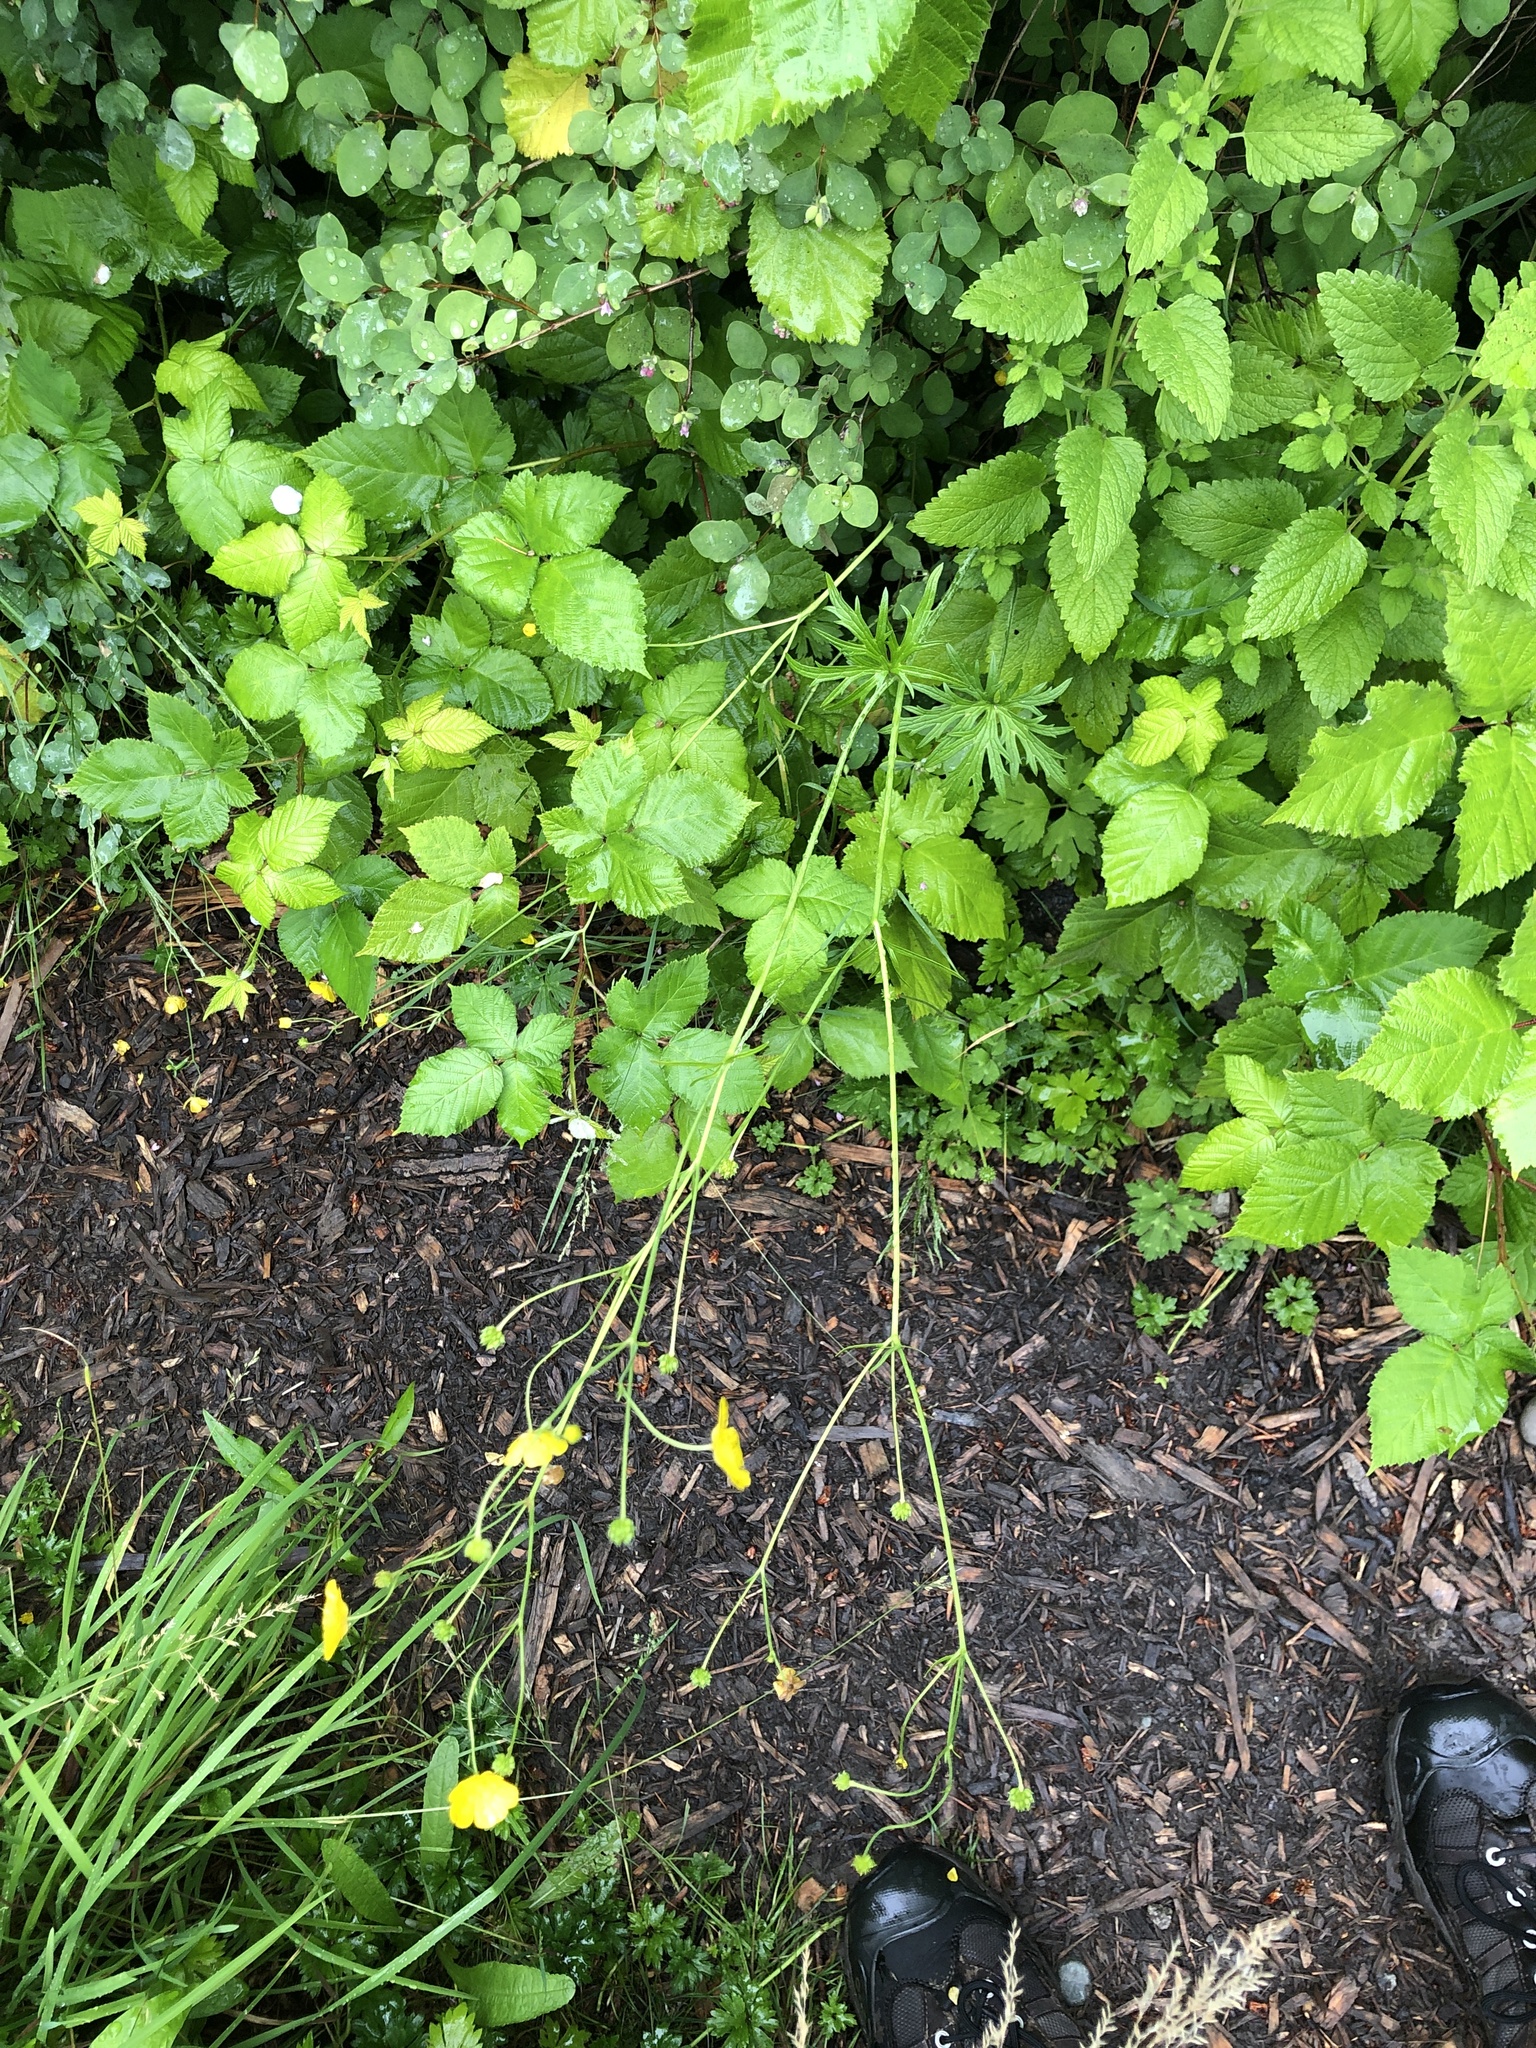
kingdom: Plantae
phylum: Tracheophyta
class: Magnoliopsida
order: Ranunculales
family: Ranunculaceae
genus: Ranunculus
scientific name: Ranunculus acris
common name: Meadow buttercup
